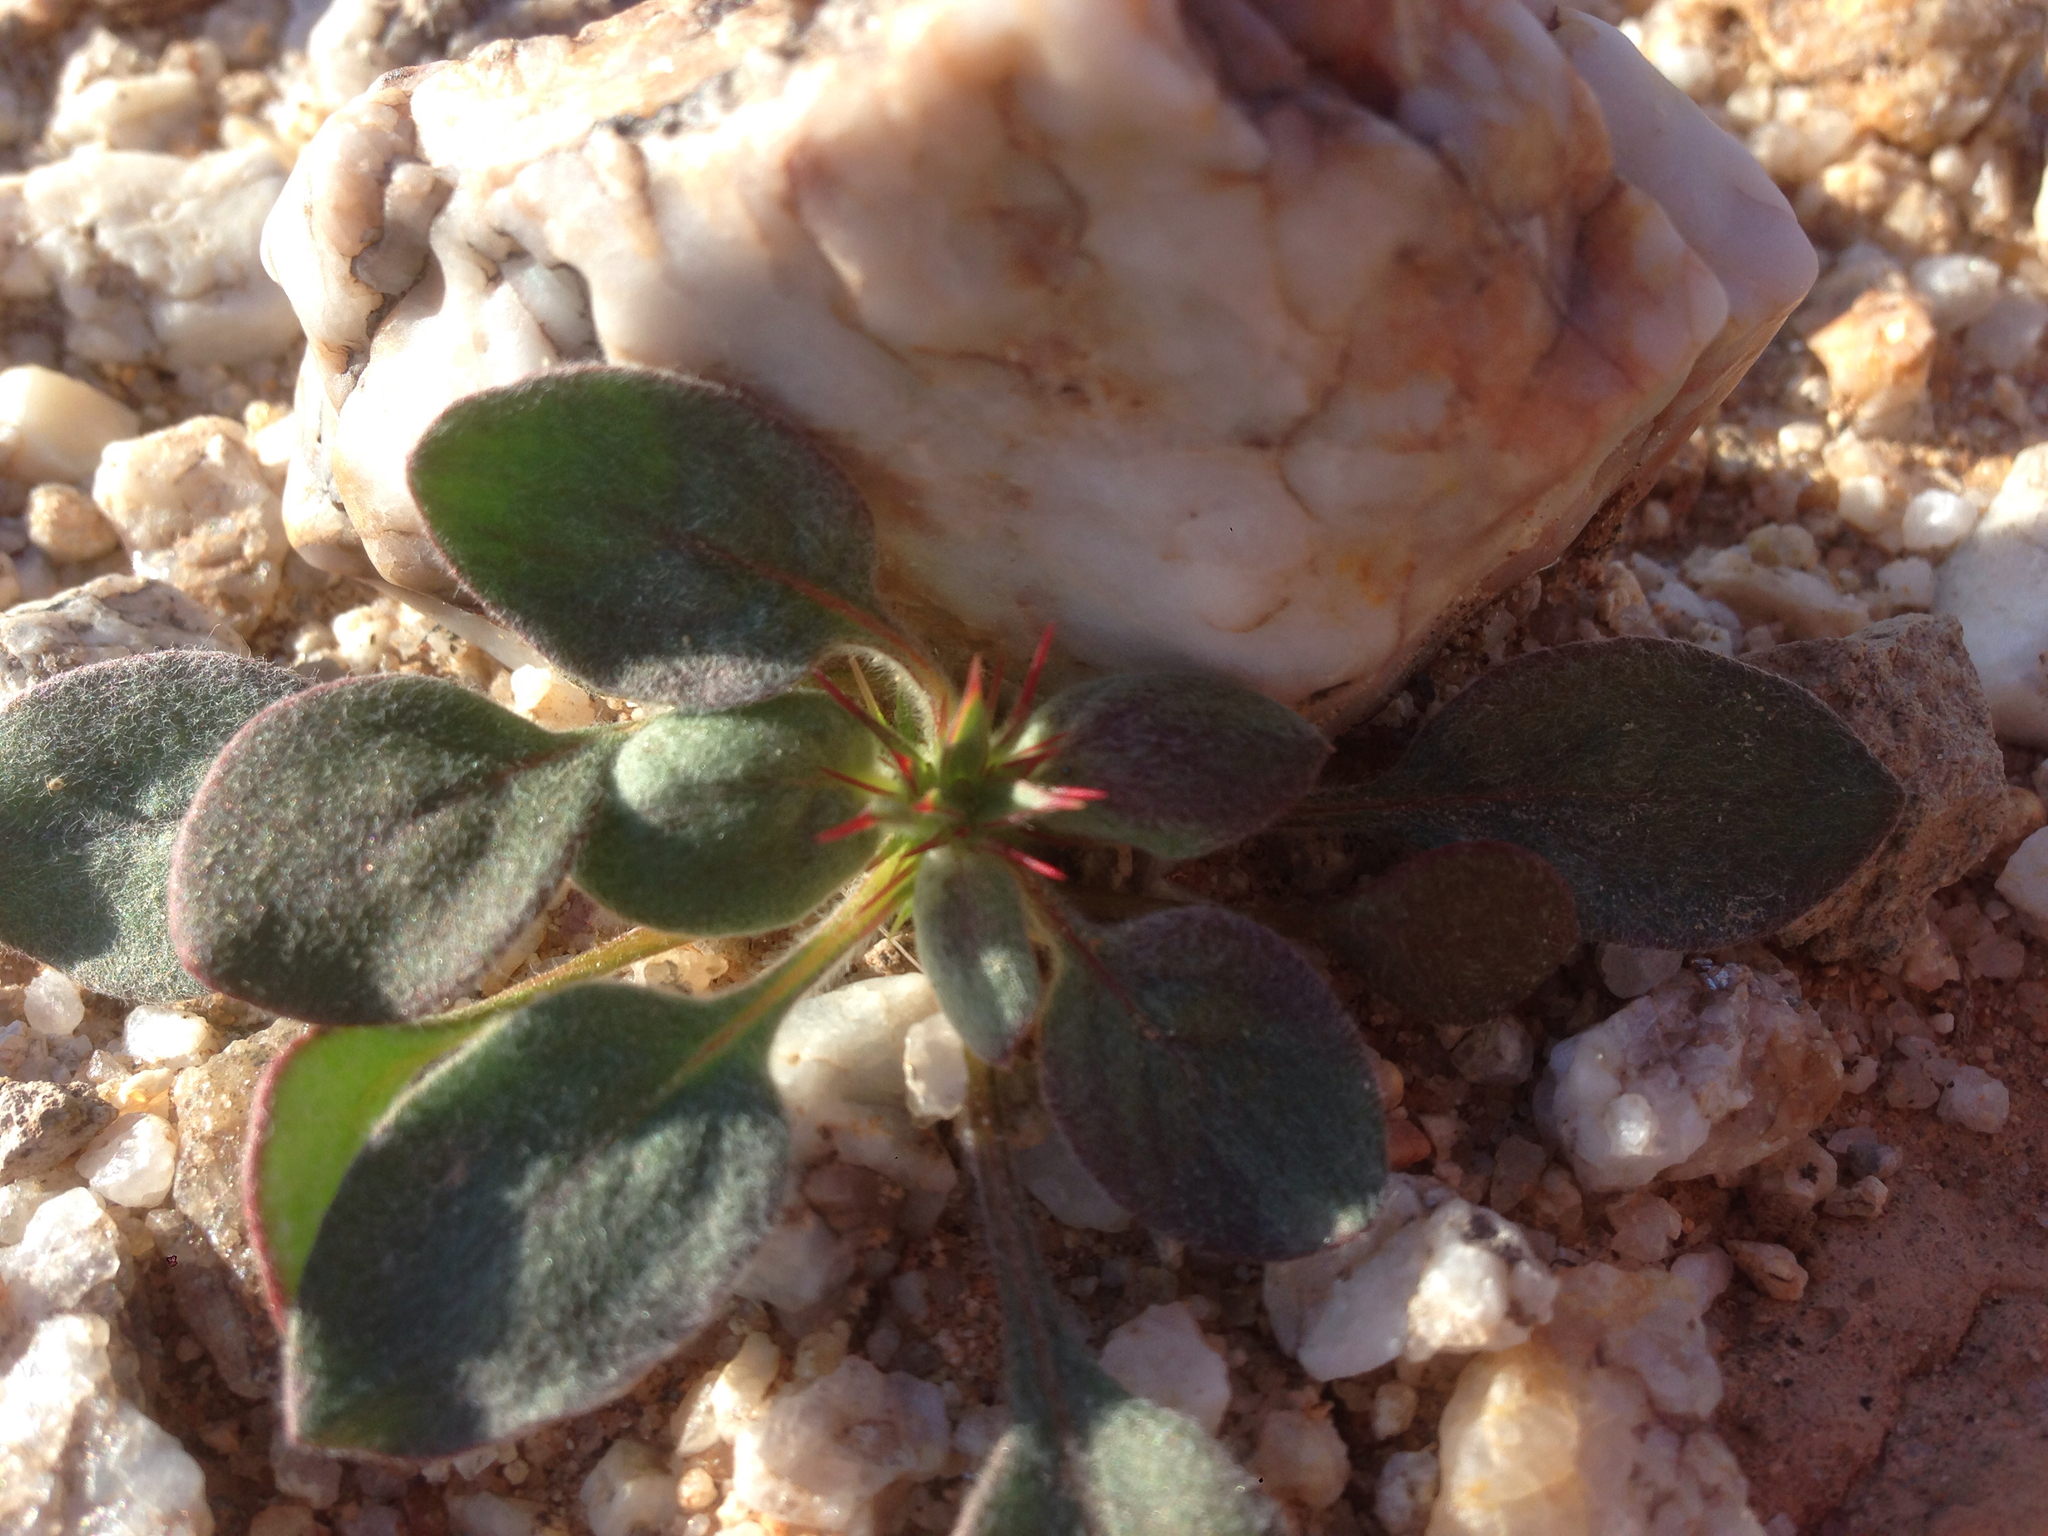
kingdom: Plantae
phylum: Tracheophyta
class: Magnoliopsida
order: Caryophyllales
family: Polygonaceae
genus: Chorizanthe
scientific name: Chorizanthe rigida
